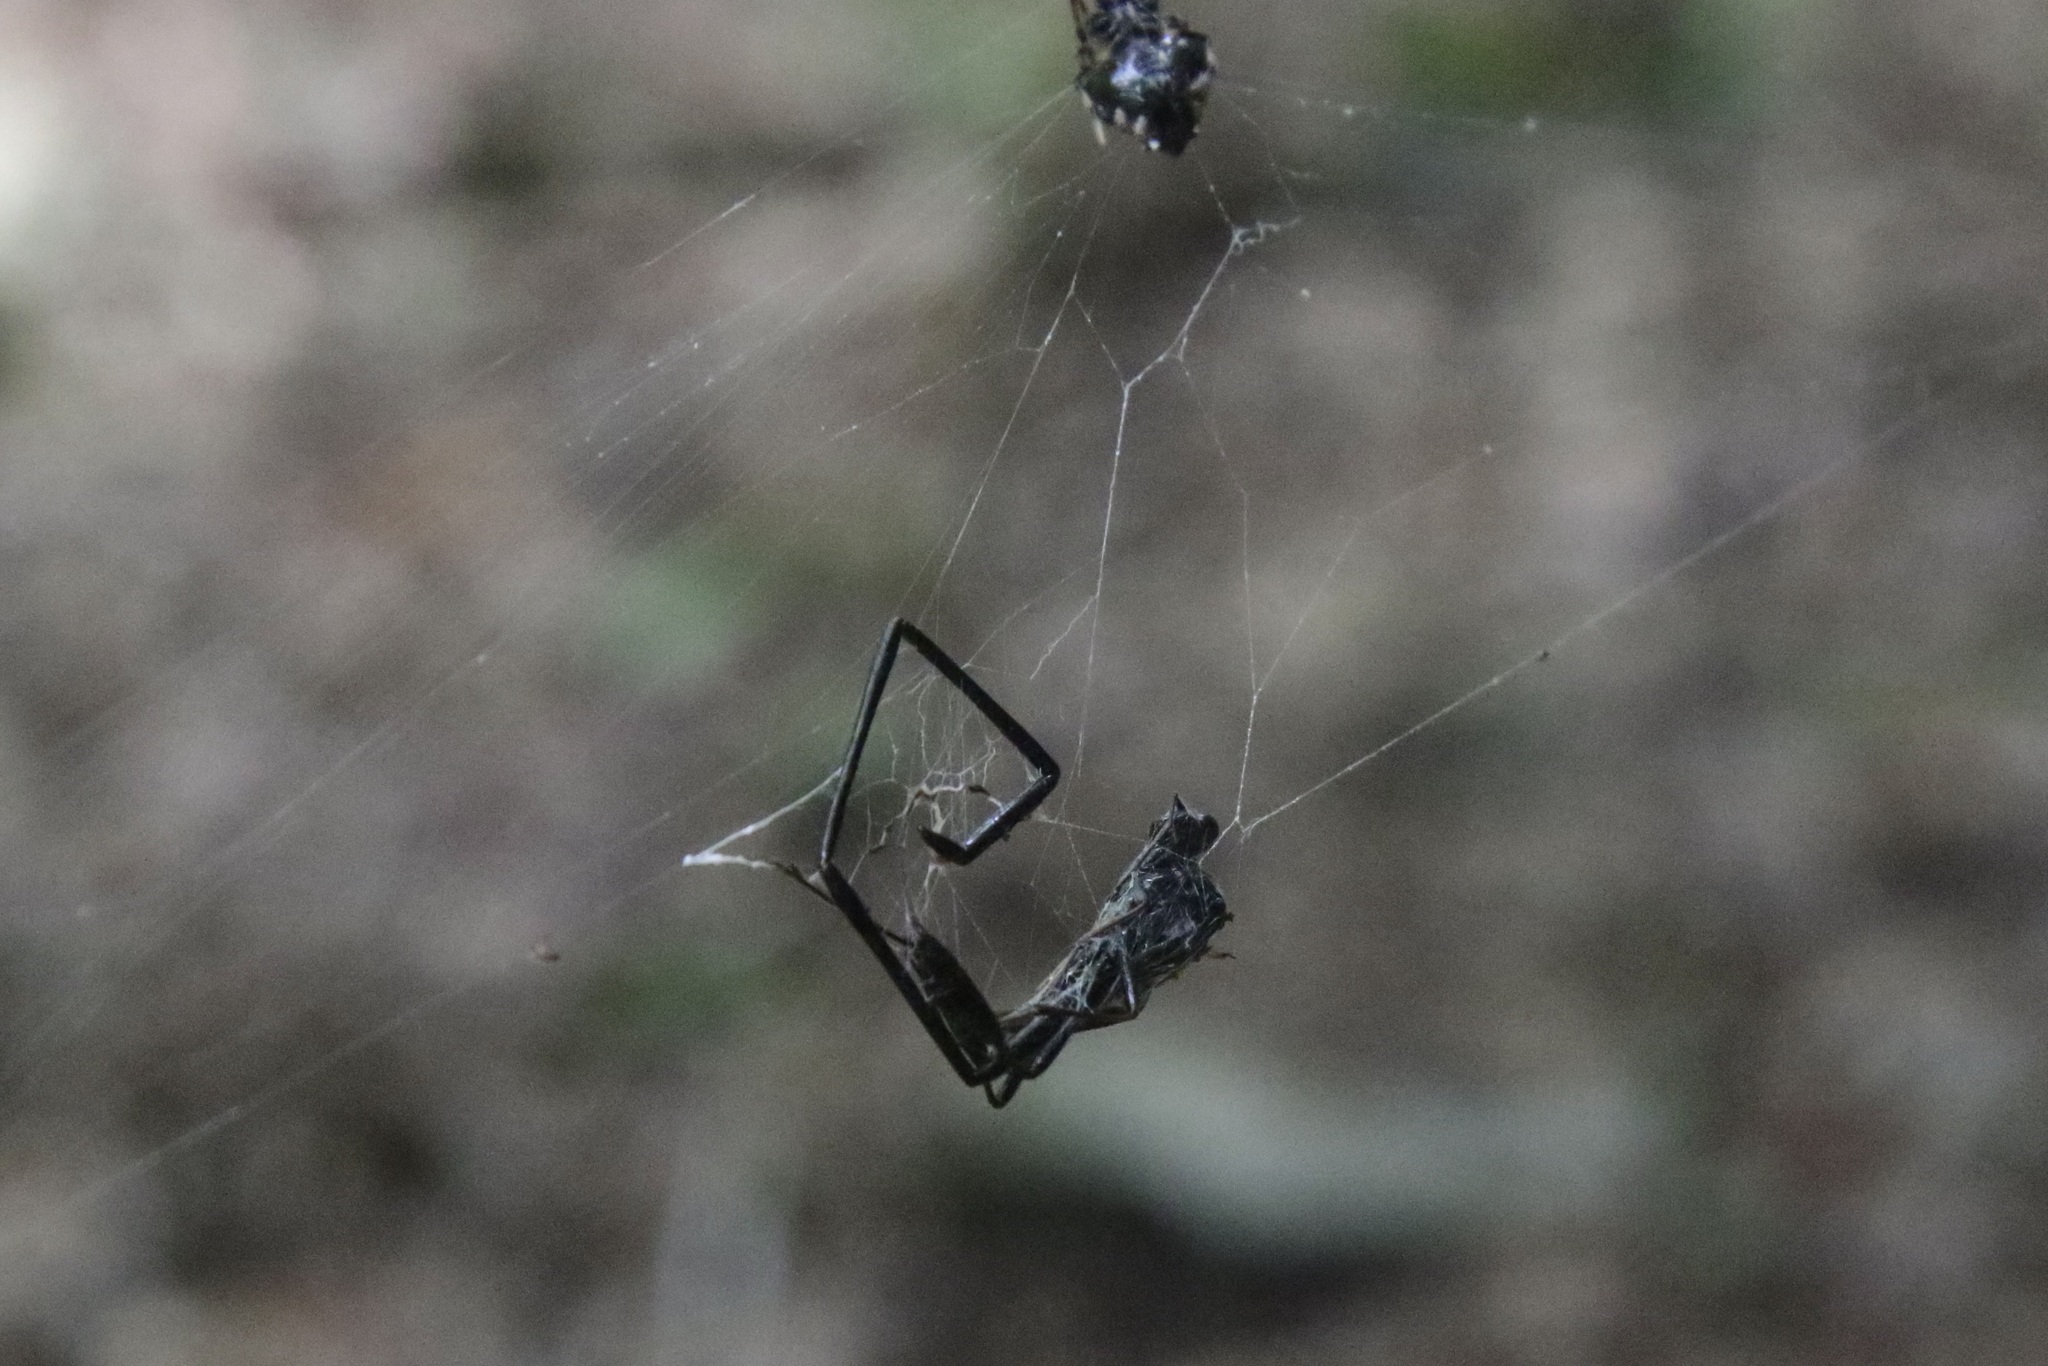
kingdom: Animalia
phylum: Arthropoda
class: Insecta
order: Hymenoptera
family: Pelecinidae
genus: Pelecinus
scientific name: Pelecinus polyturator
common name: American pelecinid wasp
